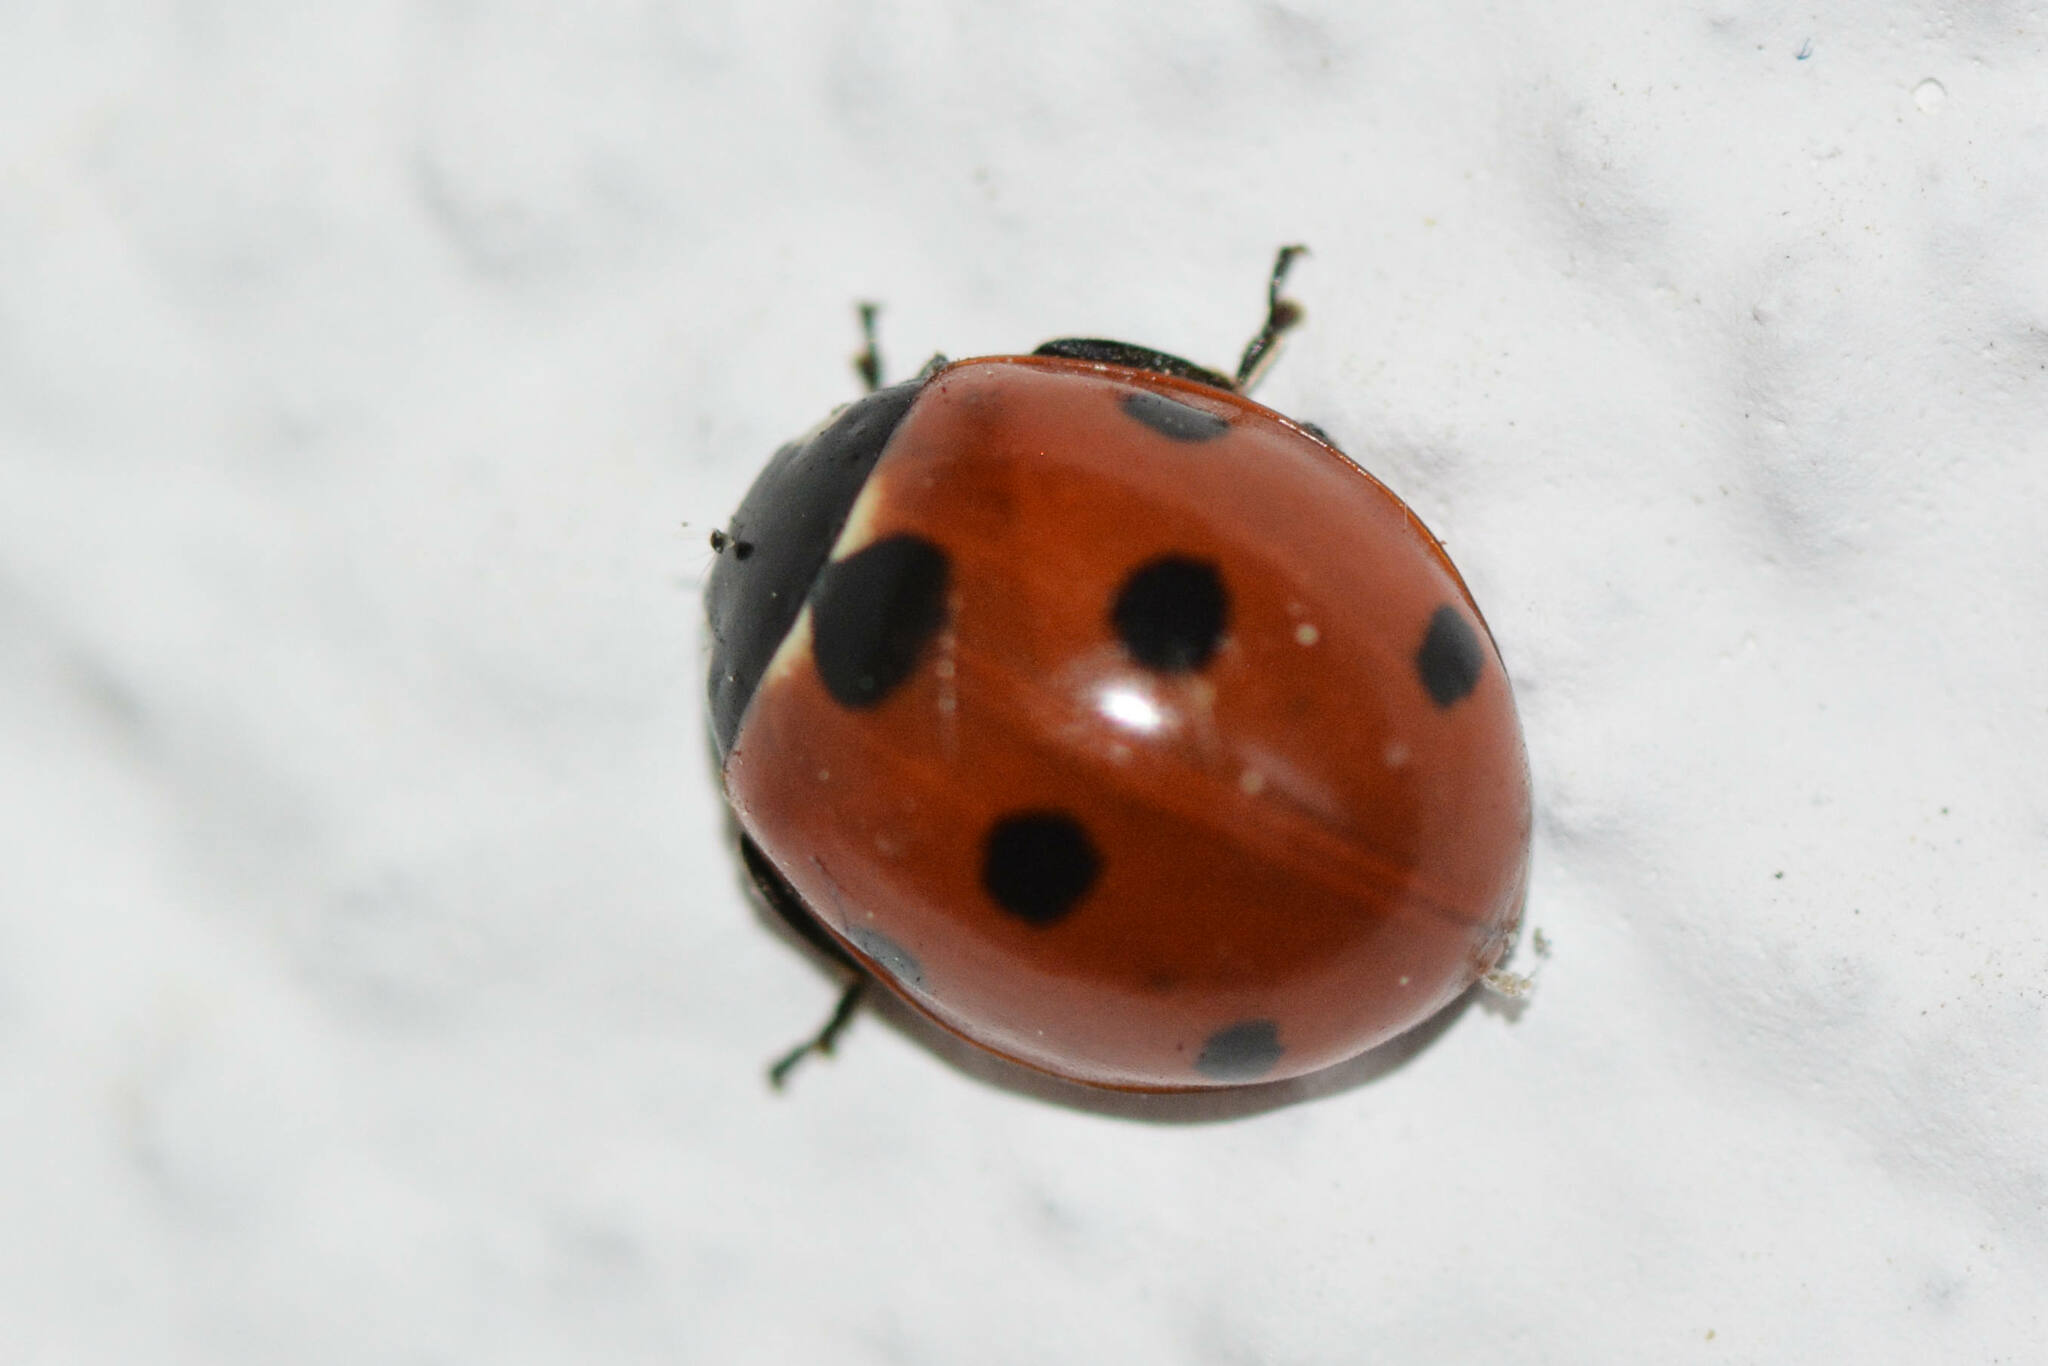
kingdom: Animalia
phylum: Arthropoda
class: Insecta
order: Coleoptera
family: Coccinellidae
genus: Coccinella
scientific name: Coccinella septempunctata
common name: Sevenspotted lady beetle
